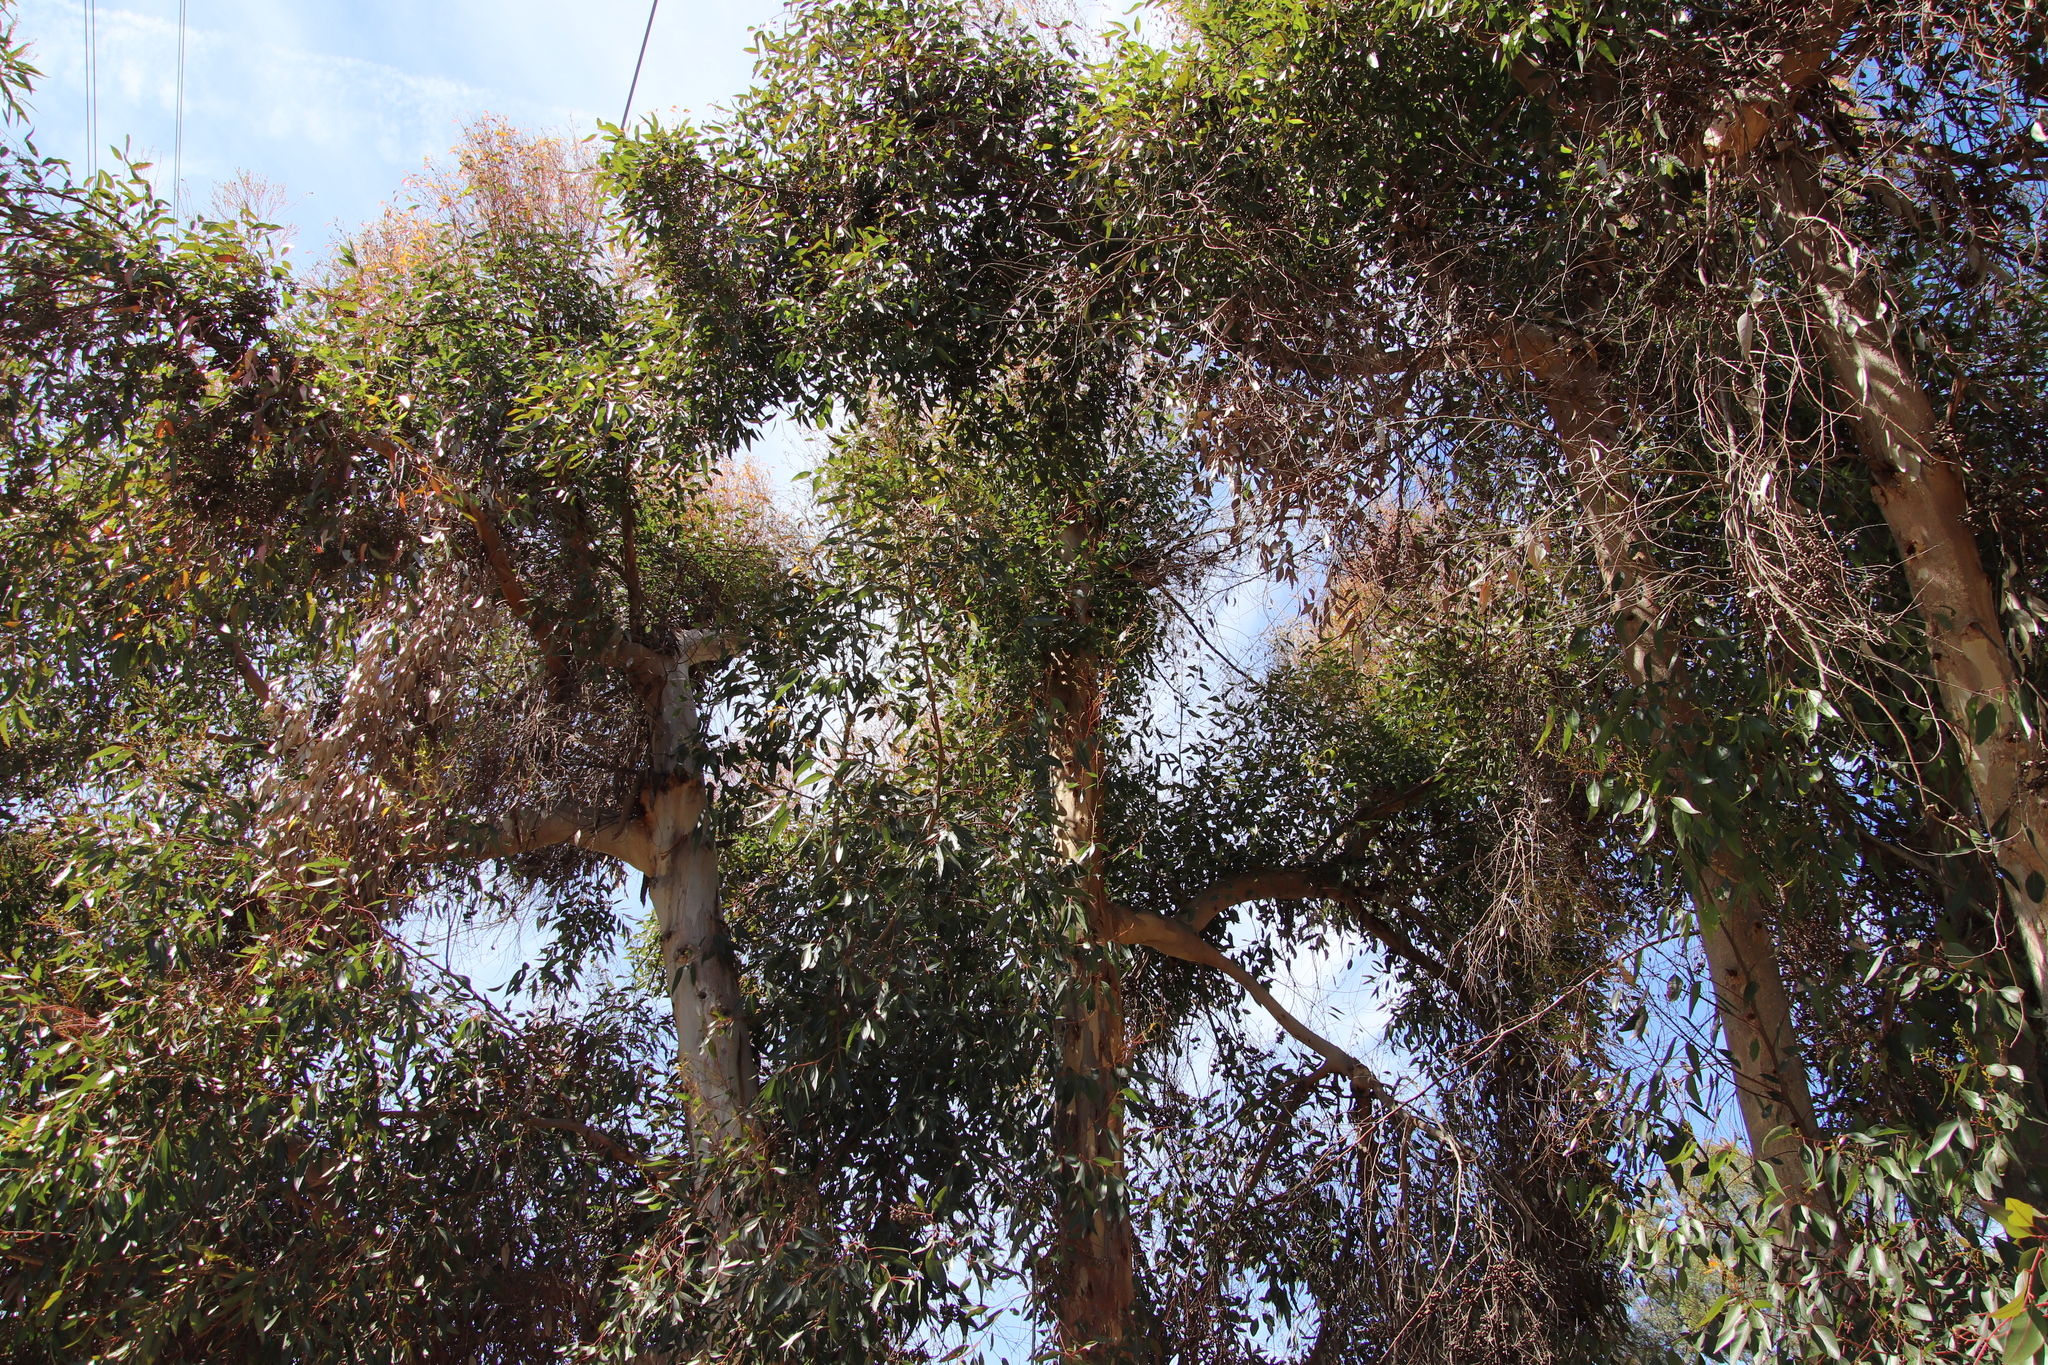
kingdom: Plantae
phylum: Tracheophyta
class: Magnoliopsida
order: Myrtales
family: Myrtaceae
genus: Eucalyptus
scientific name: Eucalyptus cladocalyx
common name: Sugargum
